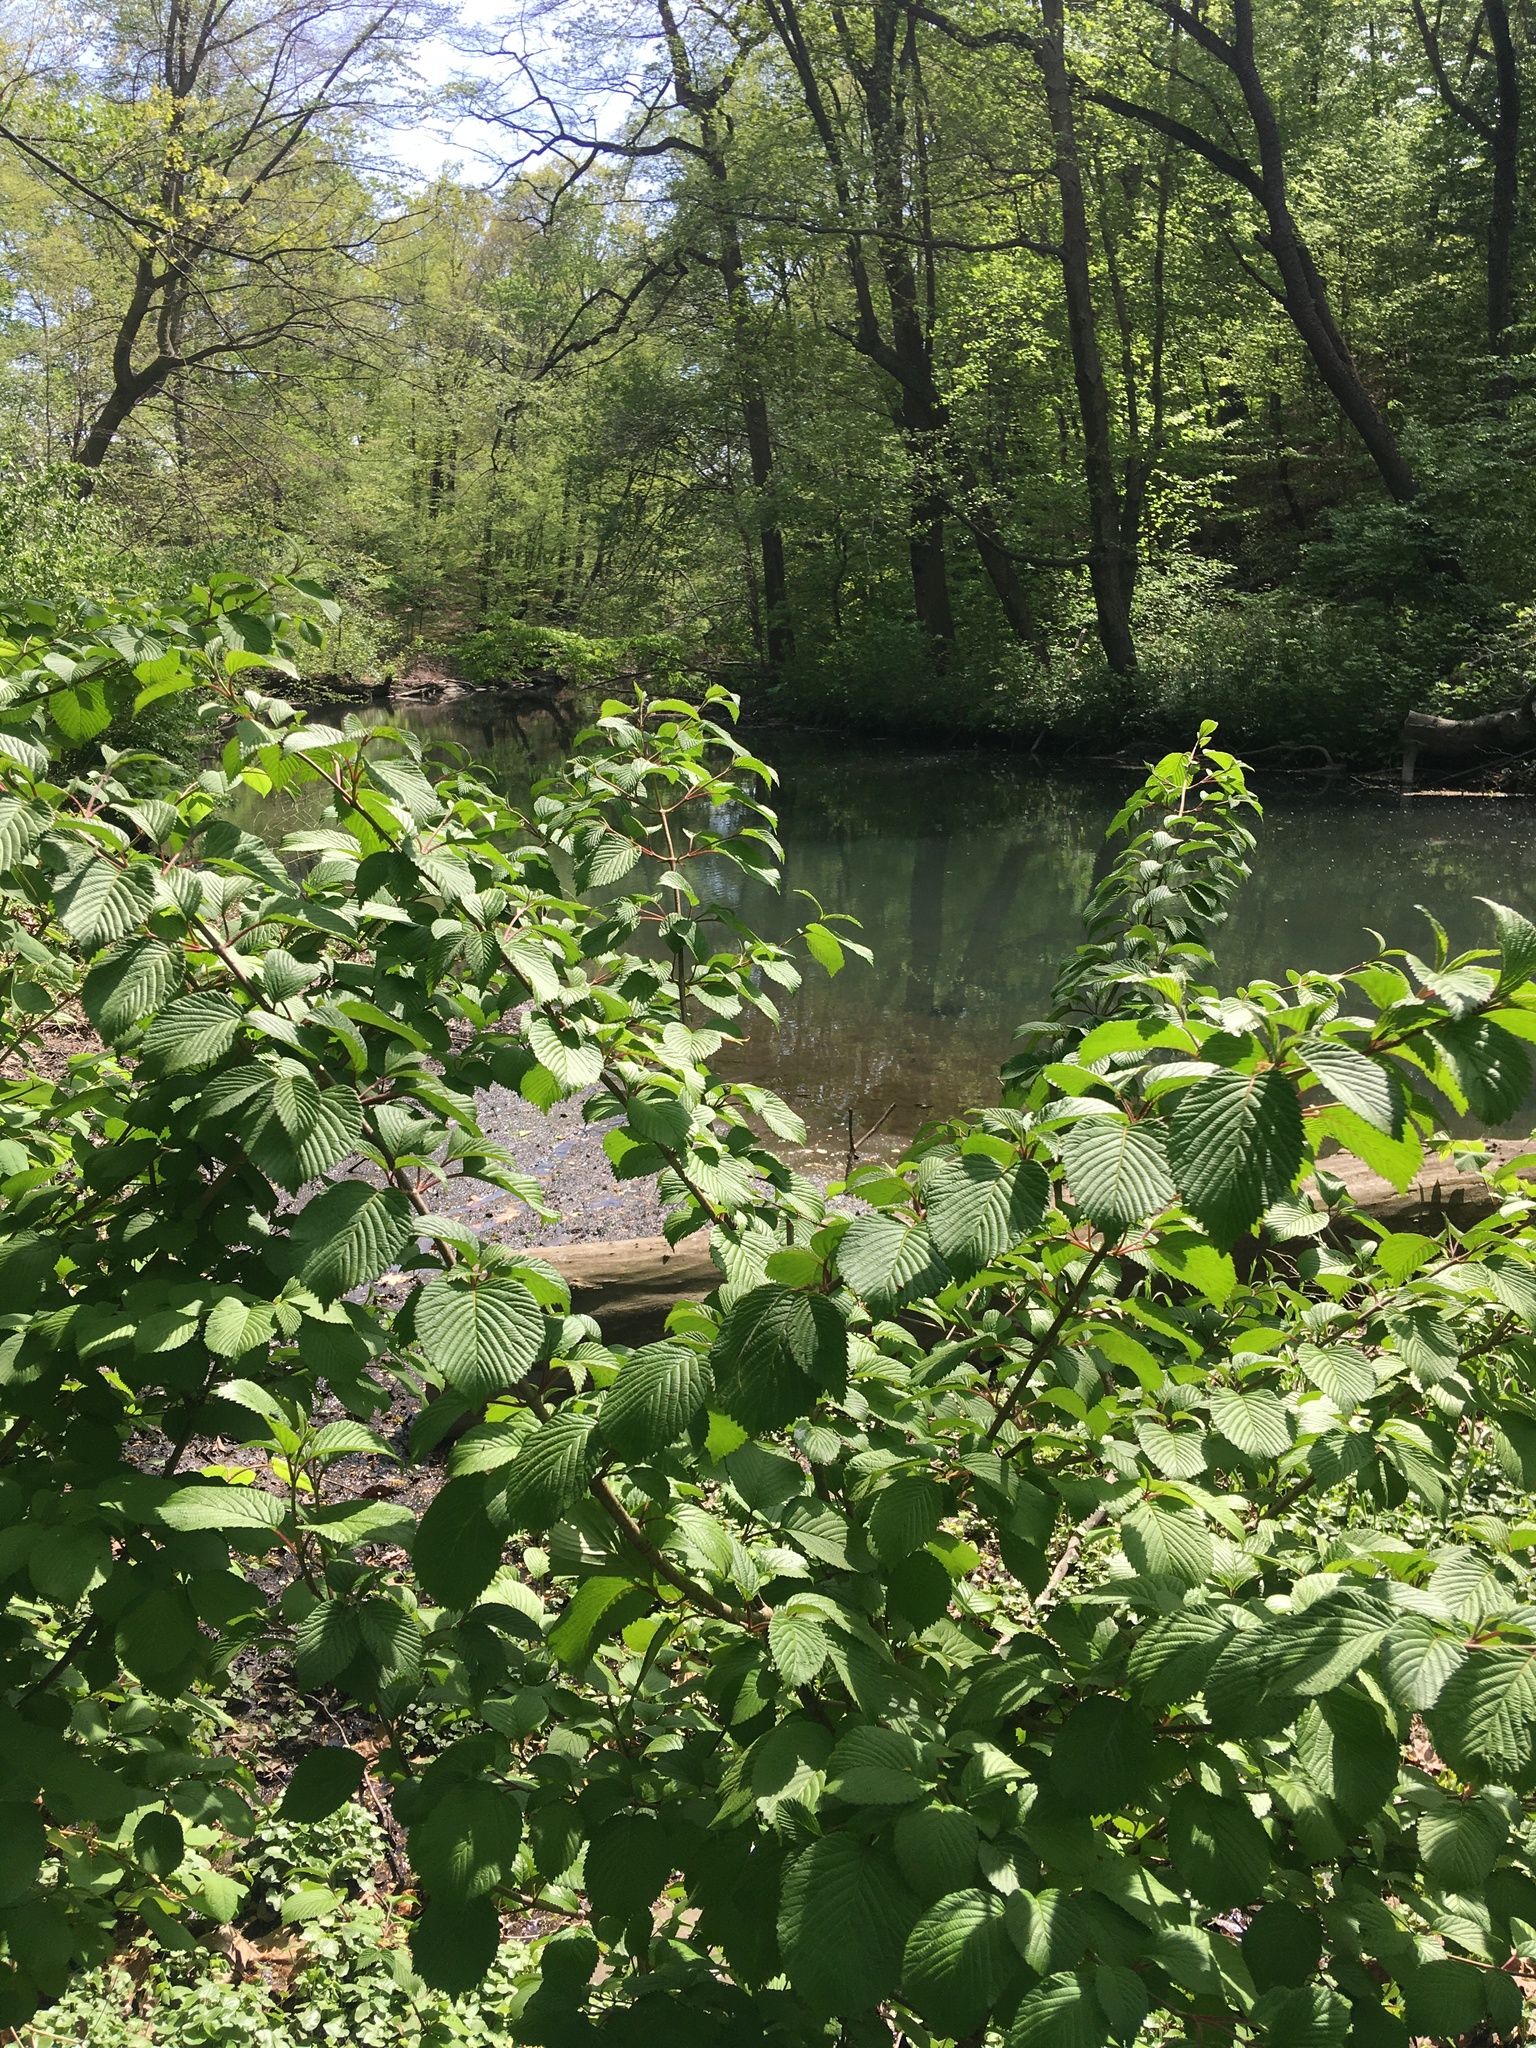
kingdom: Plantae
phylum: Tracheophyta
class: Magnoliopsida
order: Dipsacales
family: Viburnaceae
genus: Viburnum
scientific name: Viburnum plicatum
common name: Japanese snowball
